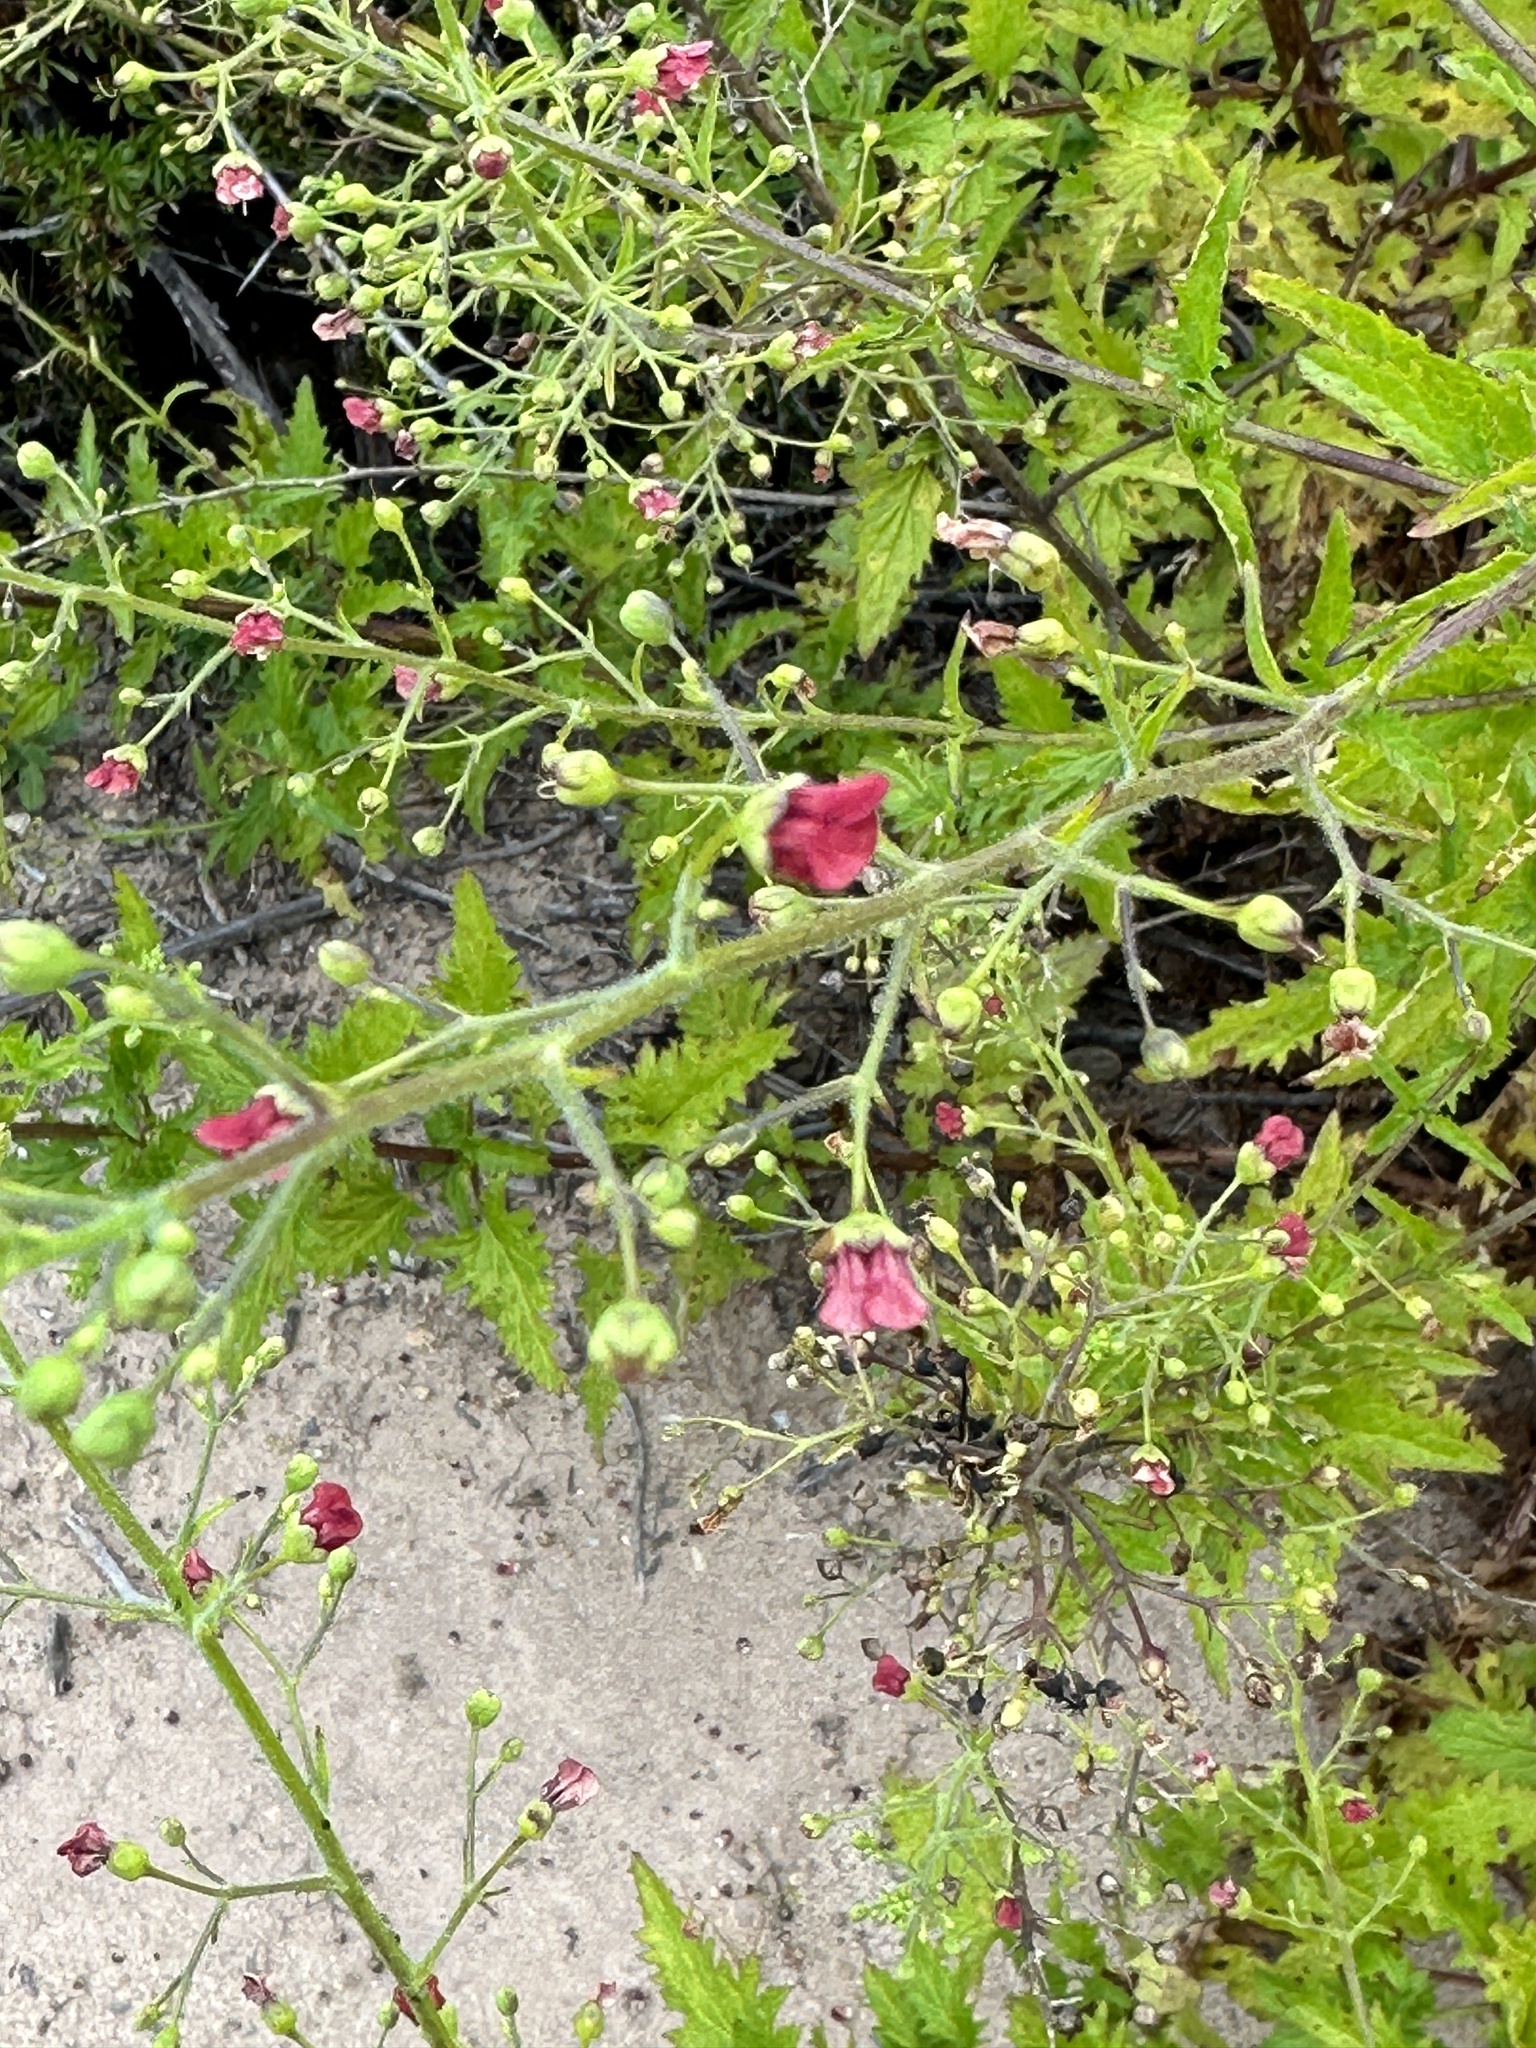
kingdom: Plantae
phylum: Tracheophyta
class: Magnoliopsida
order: Lamiales
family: Scrophulariaceae
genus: Scrophularia
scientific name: Scrophularia californica
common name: California figwort
